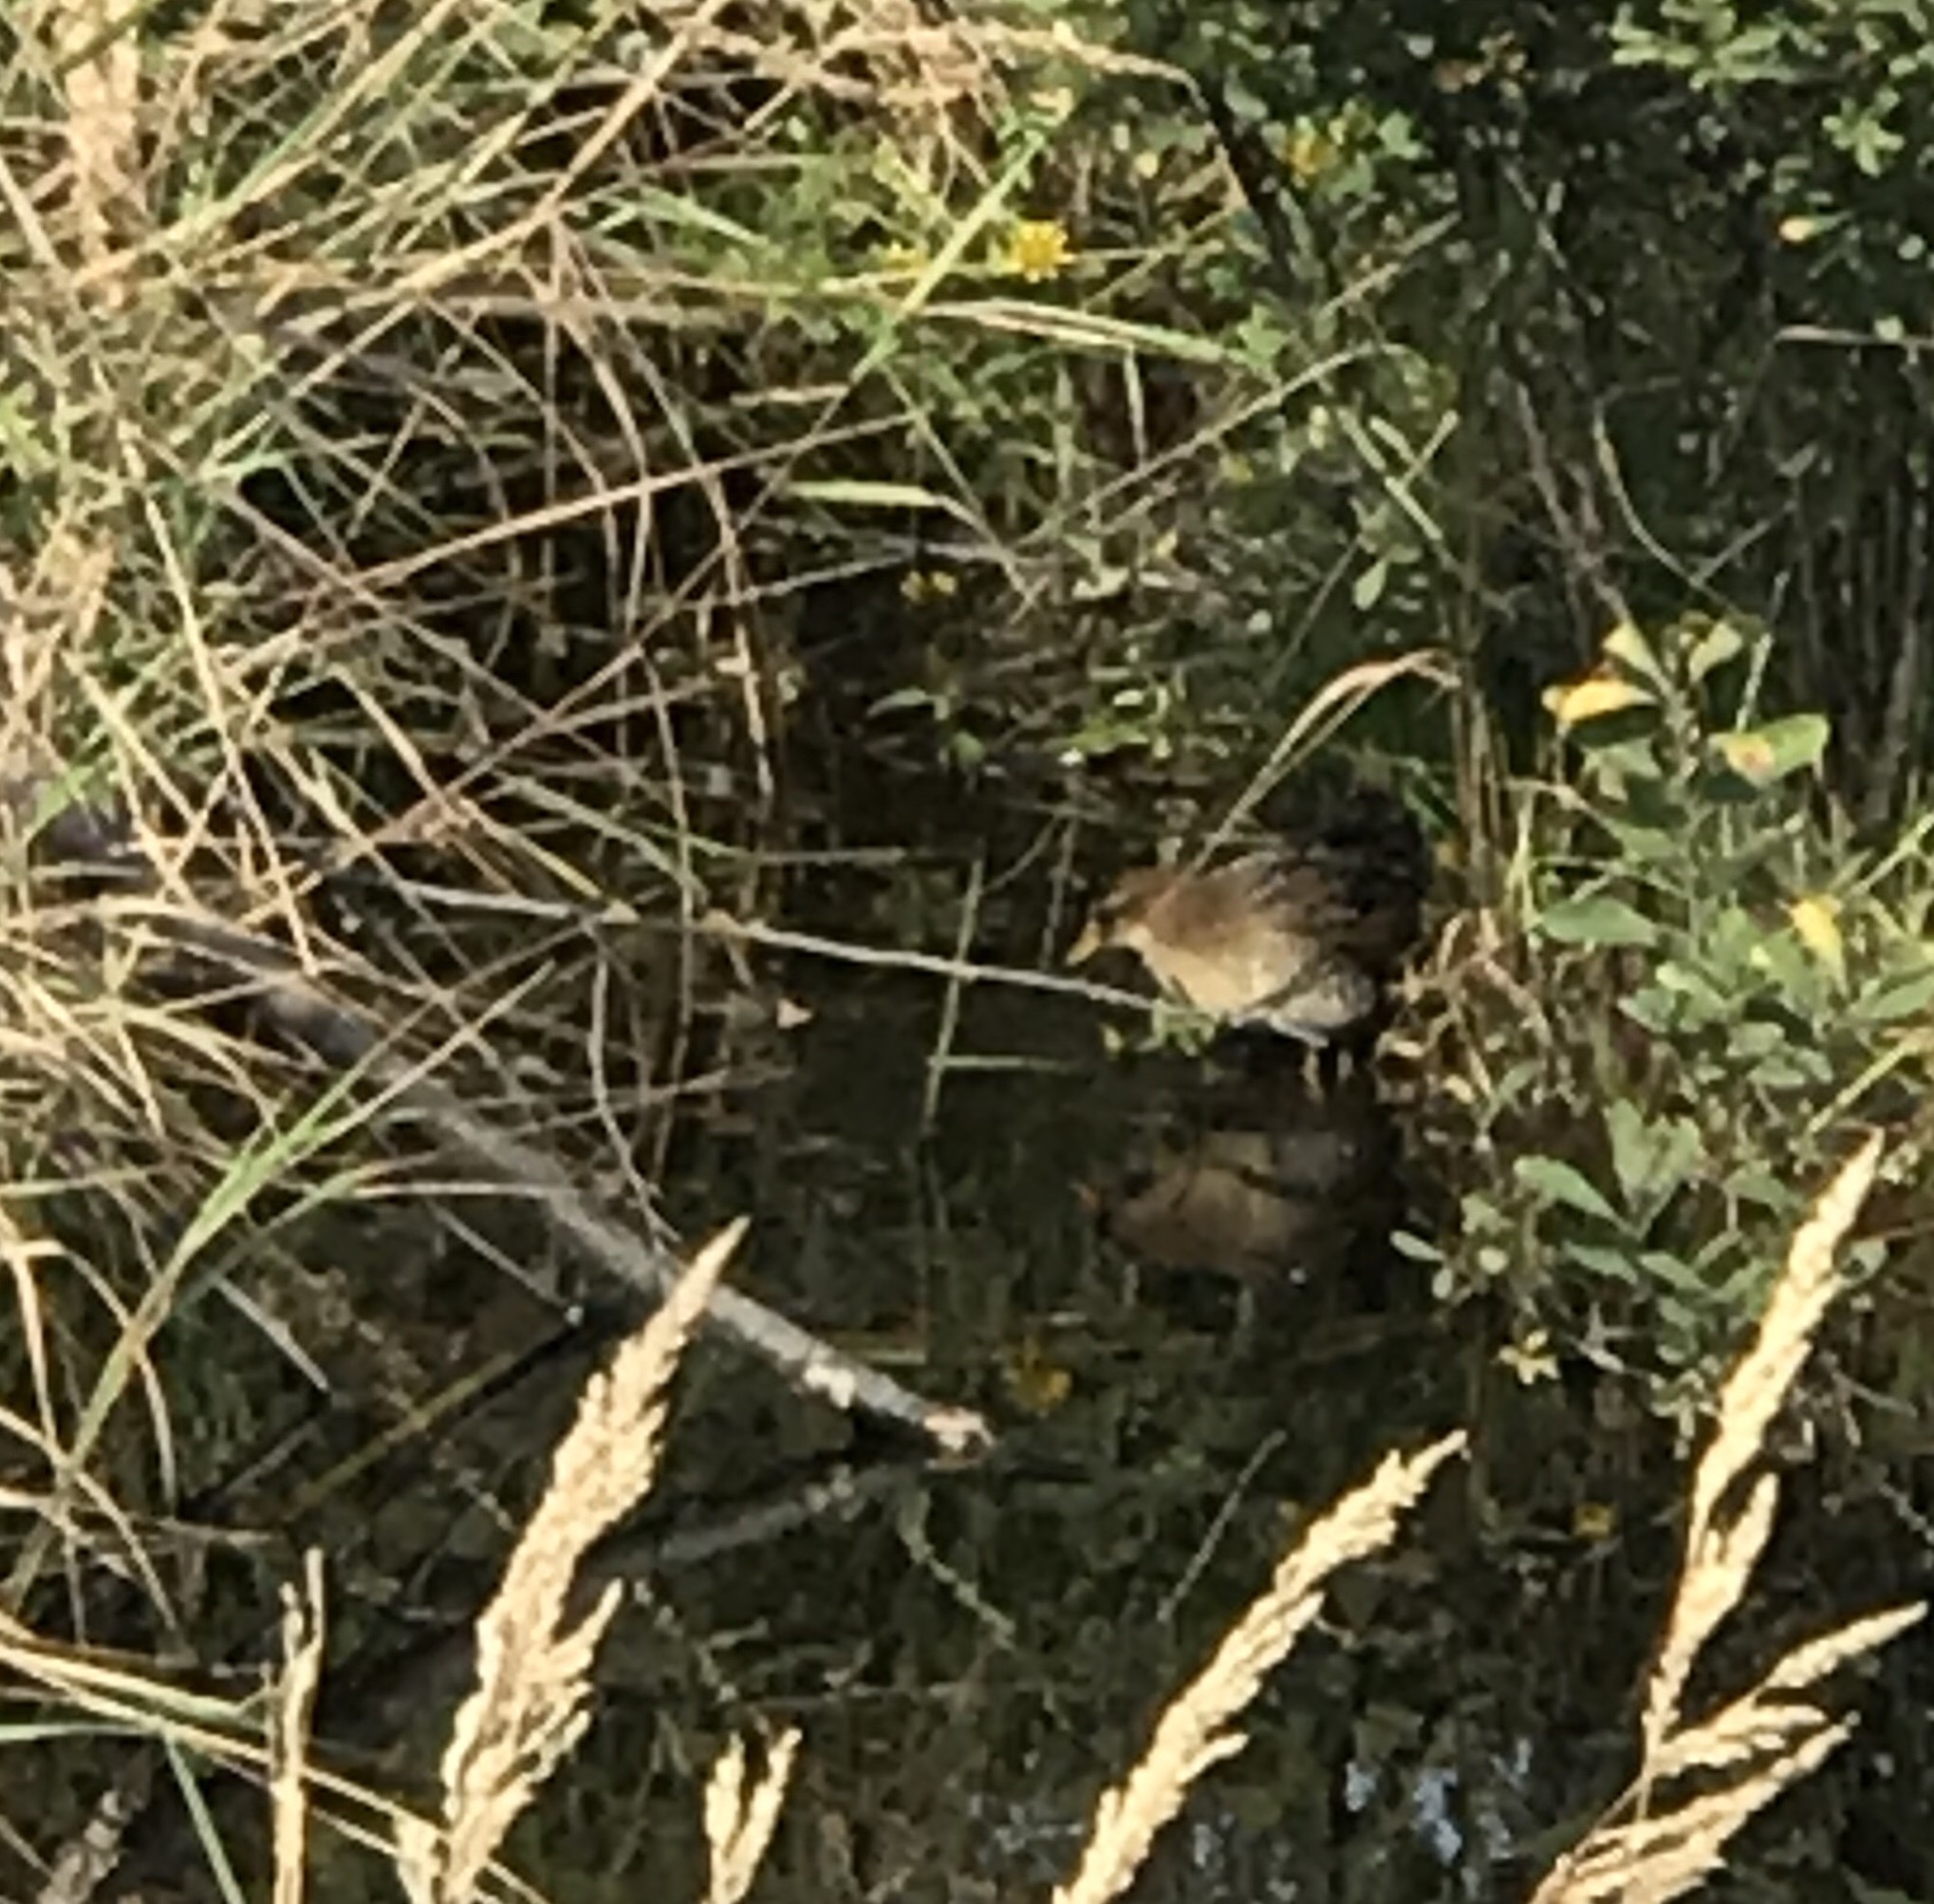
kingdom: Animalia
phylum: Chordata
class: Aves
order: Gruiformes
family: Rallidae
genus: Porzana
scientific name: Porzana carolina
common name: Sora
